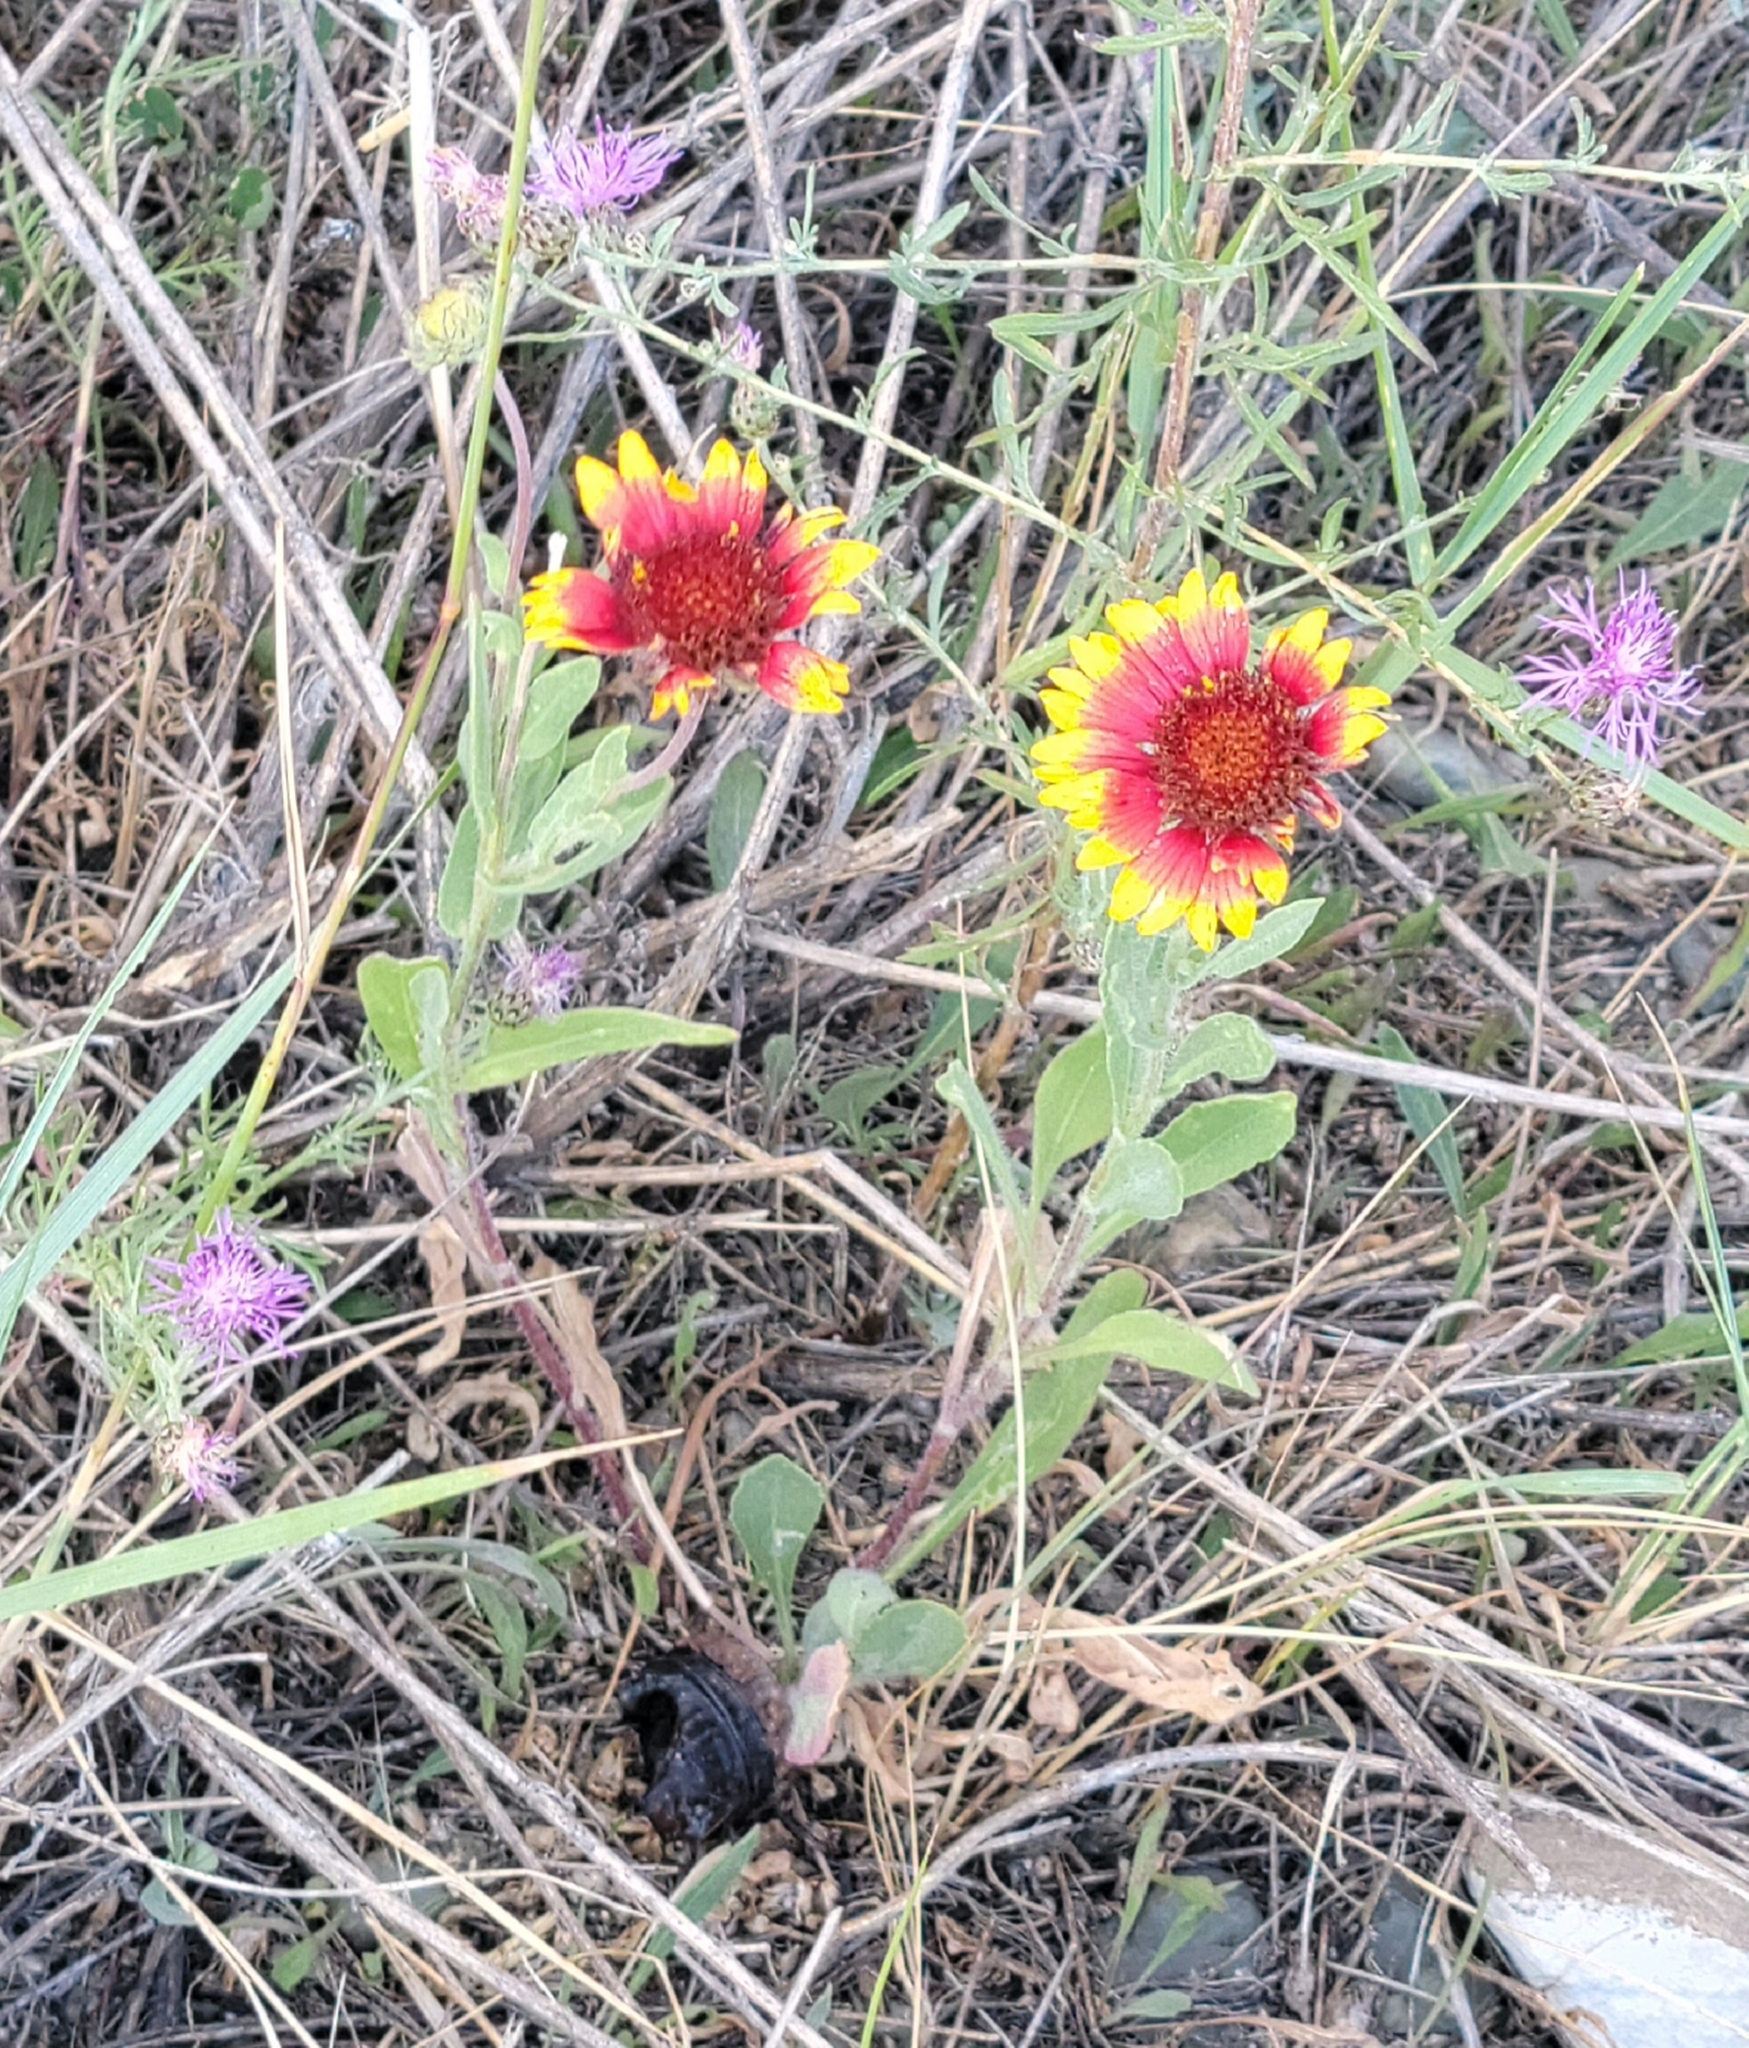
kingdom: Plantae
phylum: Tracheophyta
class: Magnoliopsida
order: Asterales
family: Asteraceae
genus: Gaillardia
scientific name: Gaillardia aristata
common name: Blanket-flower
